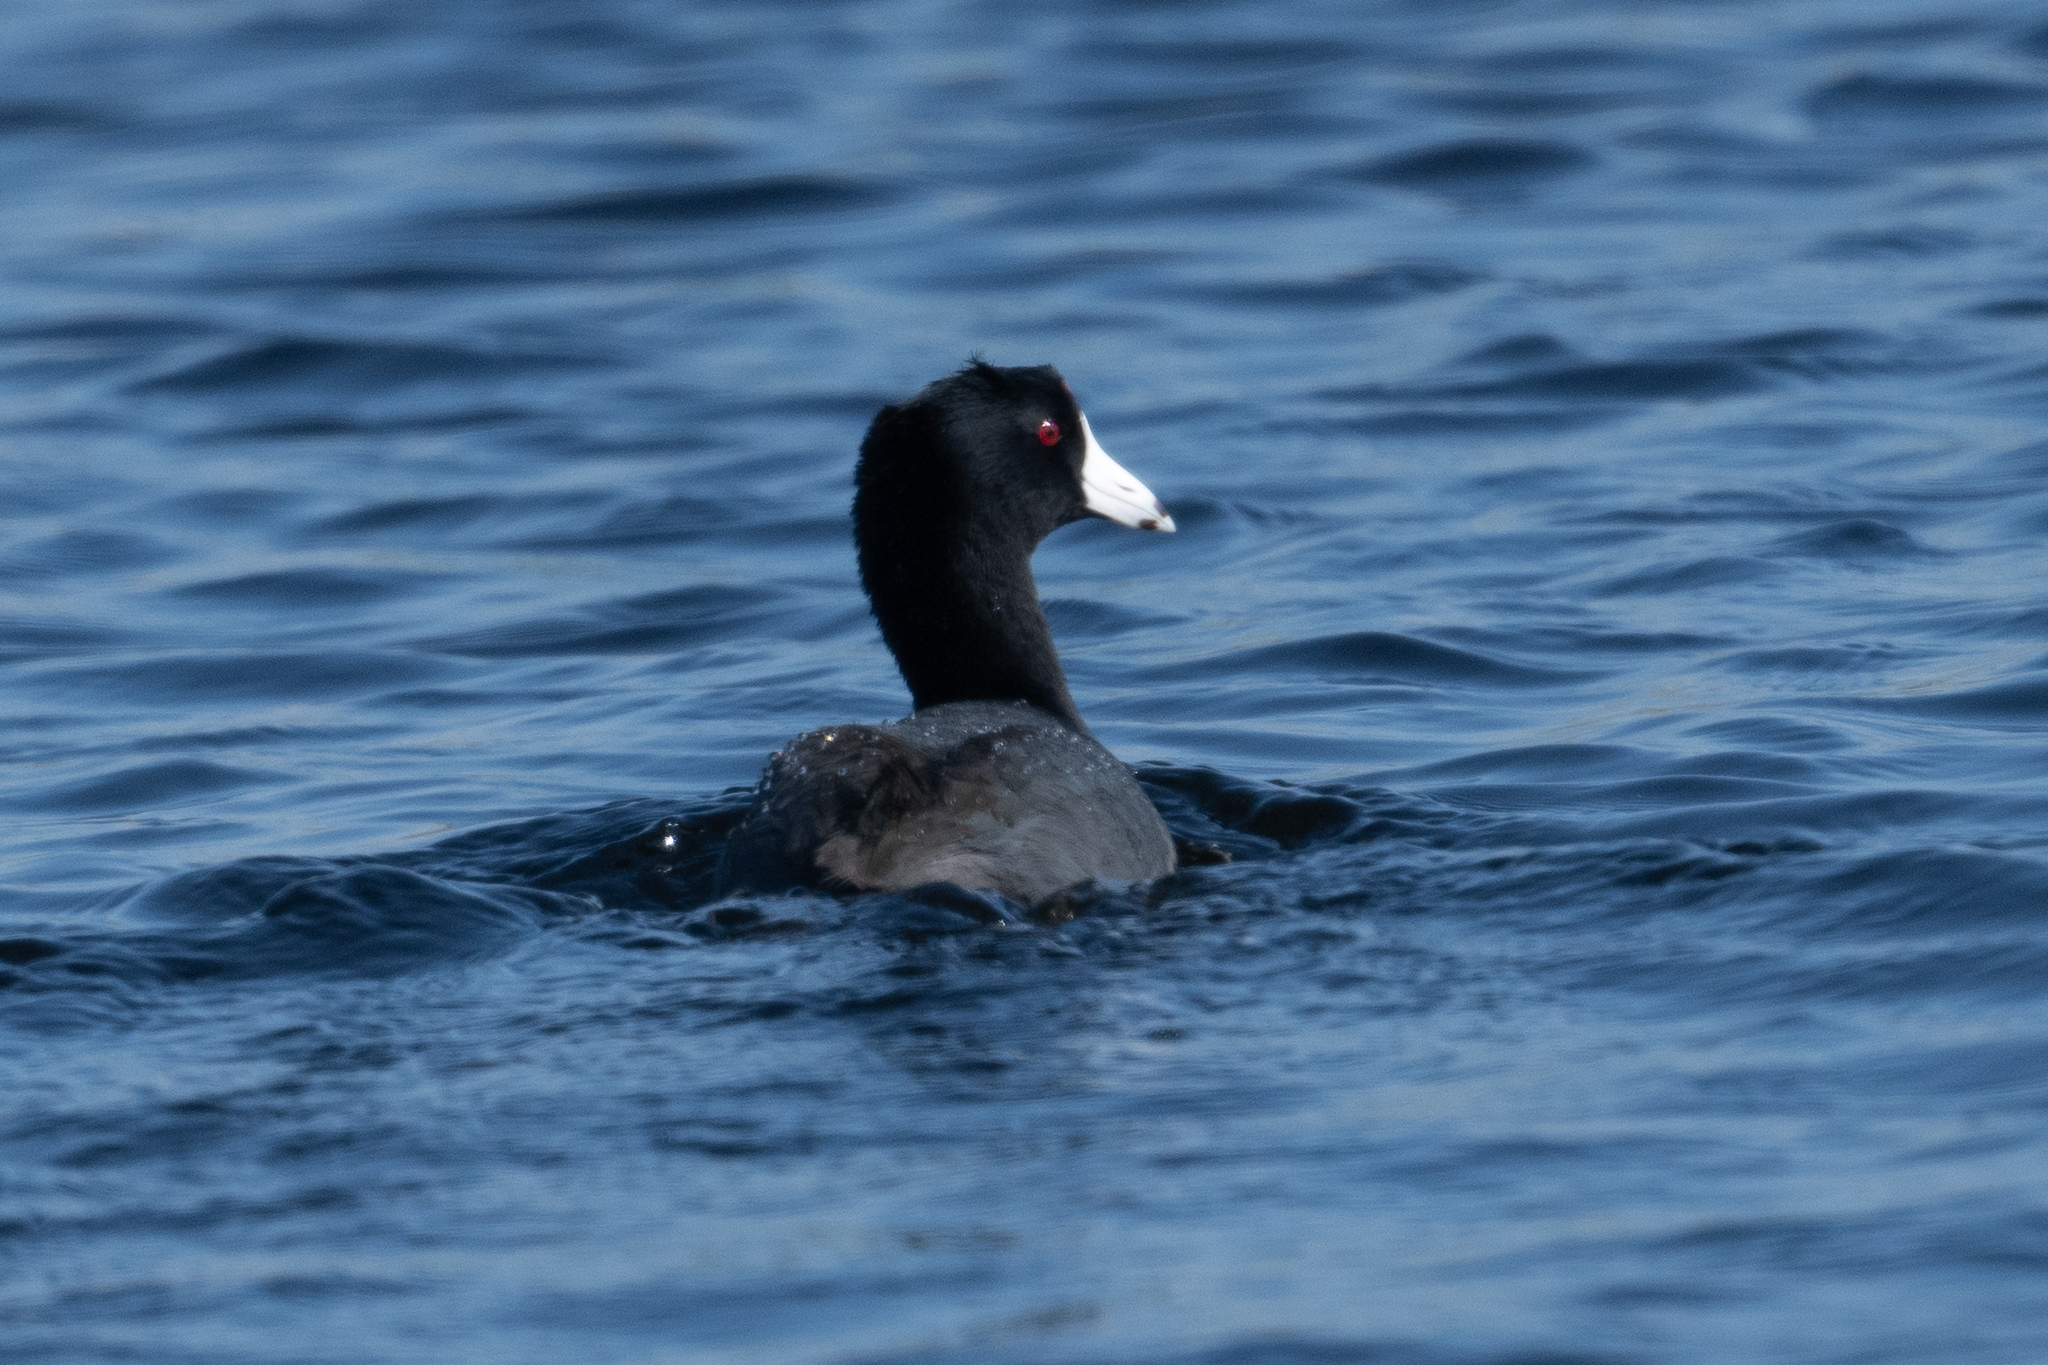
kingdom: Animalia
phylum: Chordata
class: Aves
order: Gruiformes
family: Rallidae
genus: Fulica
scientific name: Fulica americana
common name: American coot
